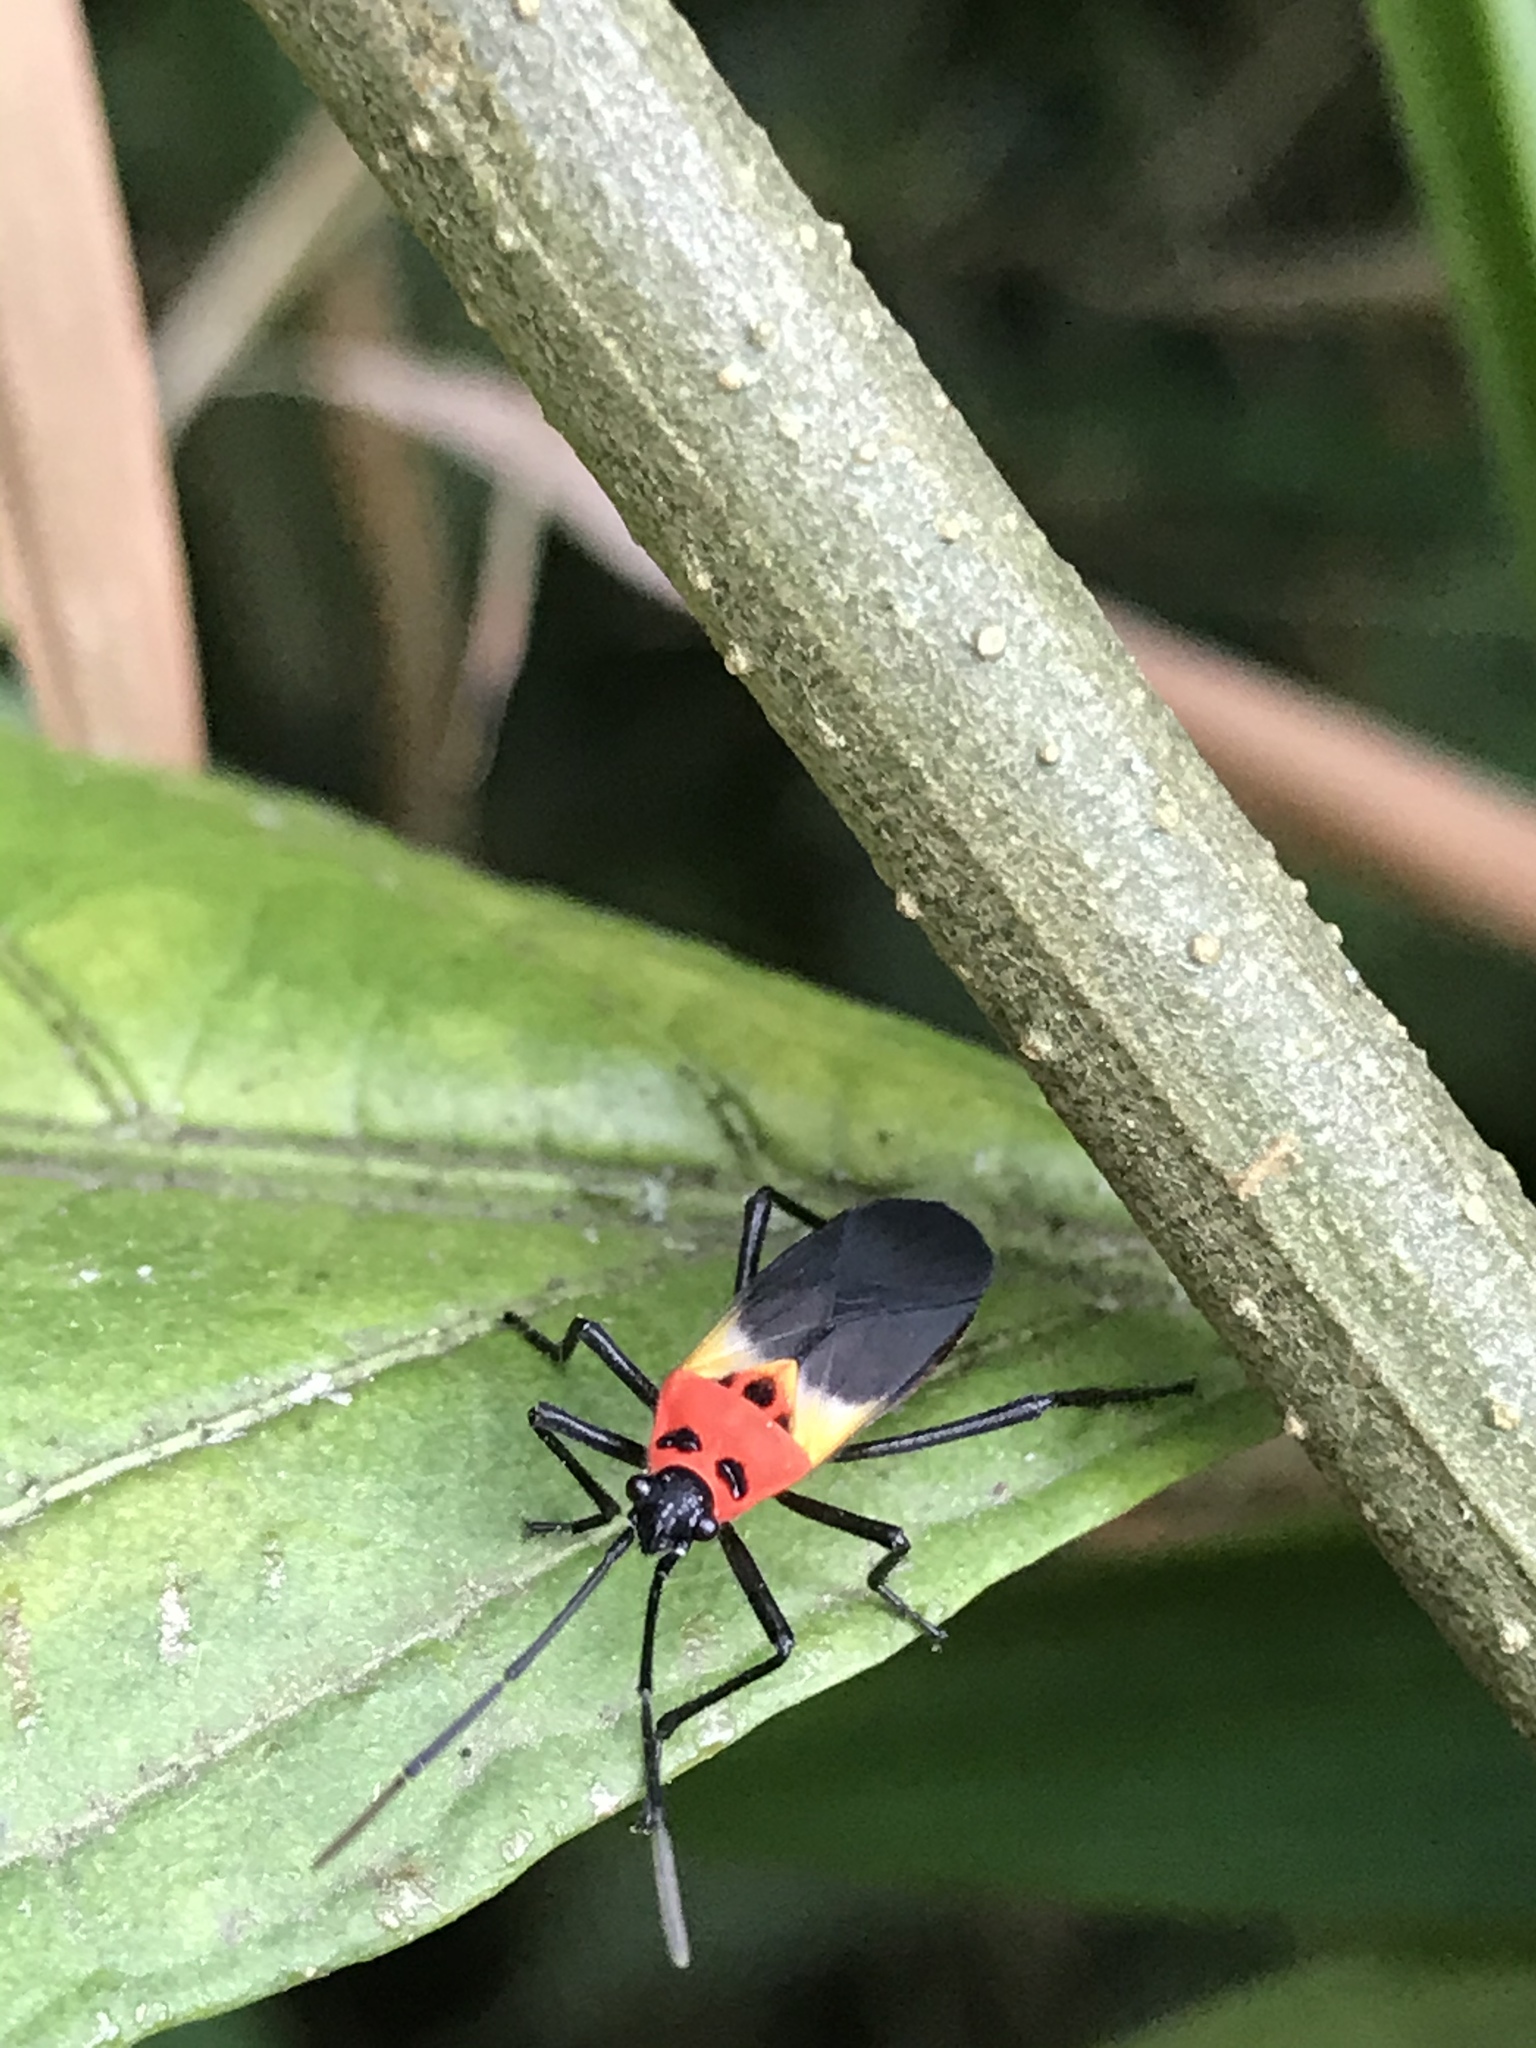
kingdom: Animalia
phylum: Arthropoda
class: Insecta
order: Hemiptera
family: Lygaeidae
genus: Acroleucus
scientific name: Acroleucus nobilis
